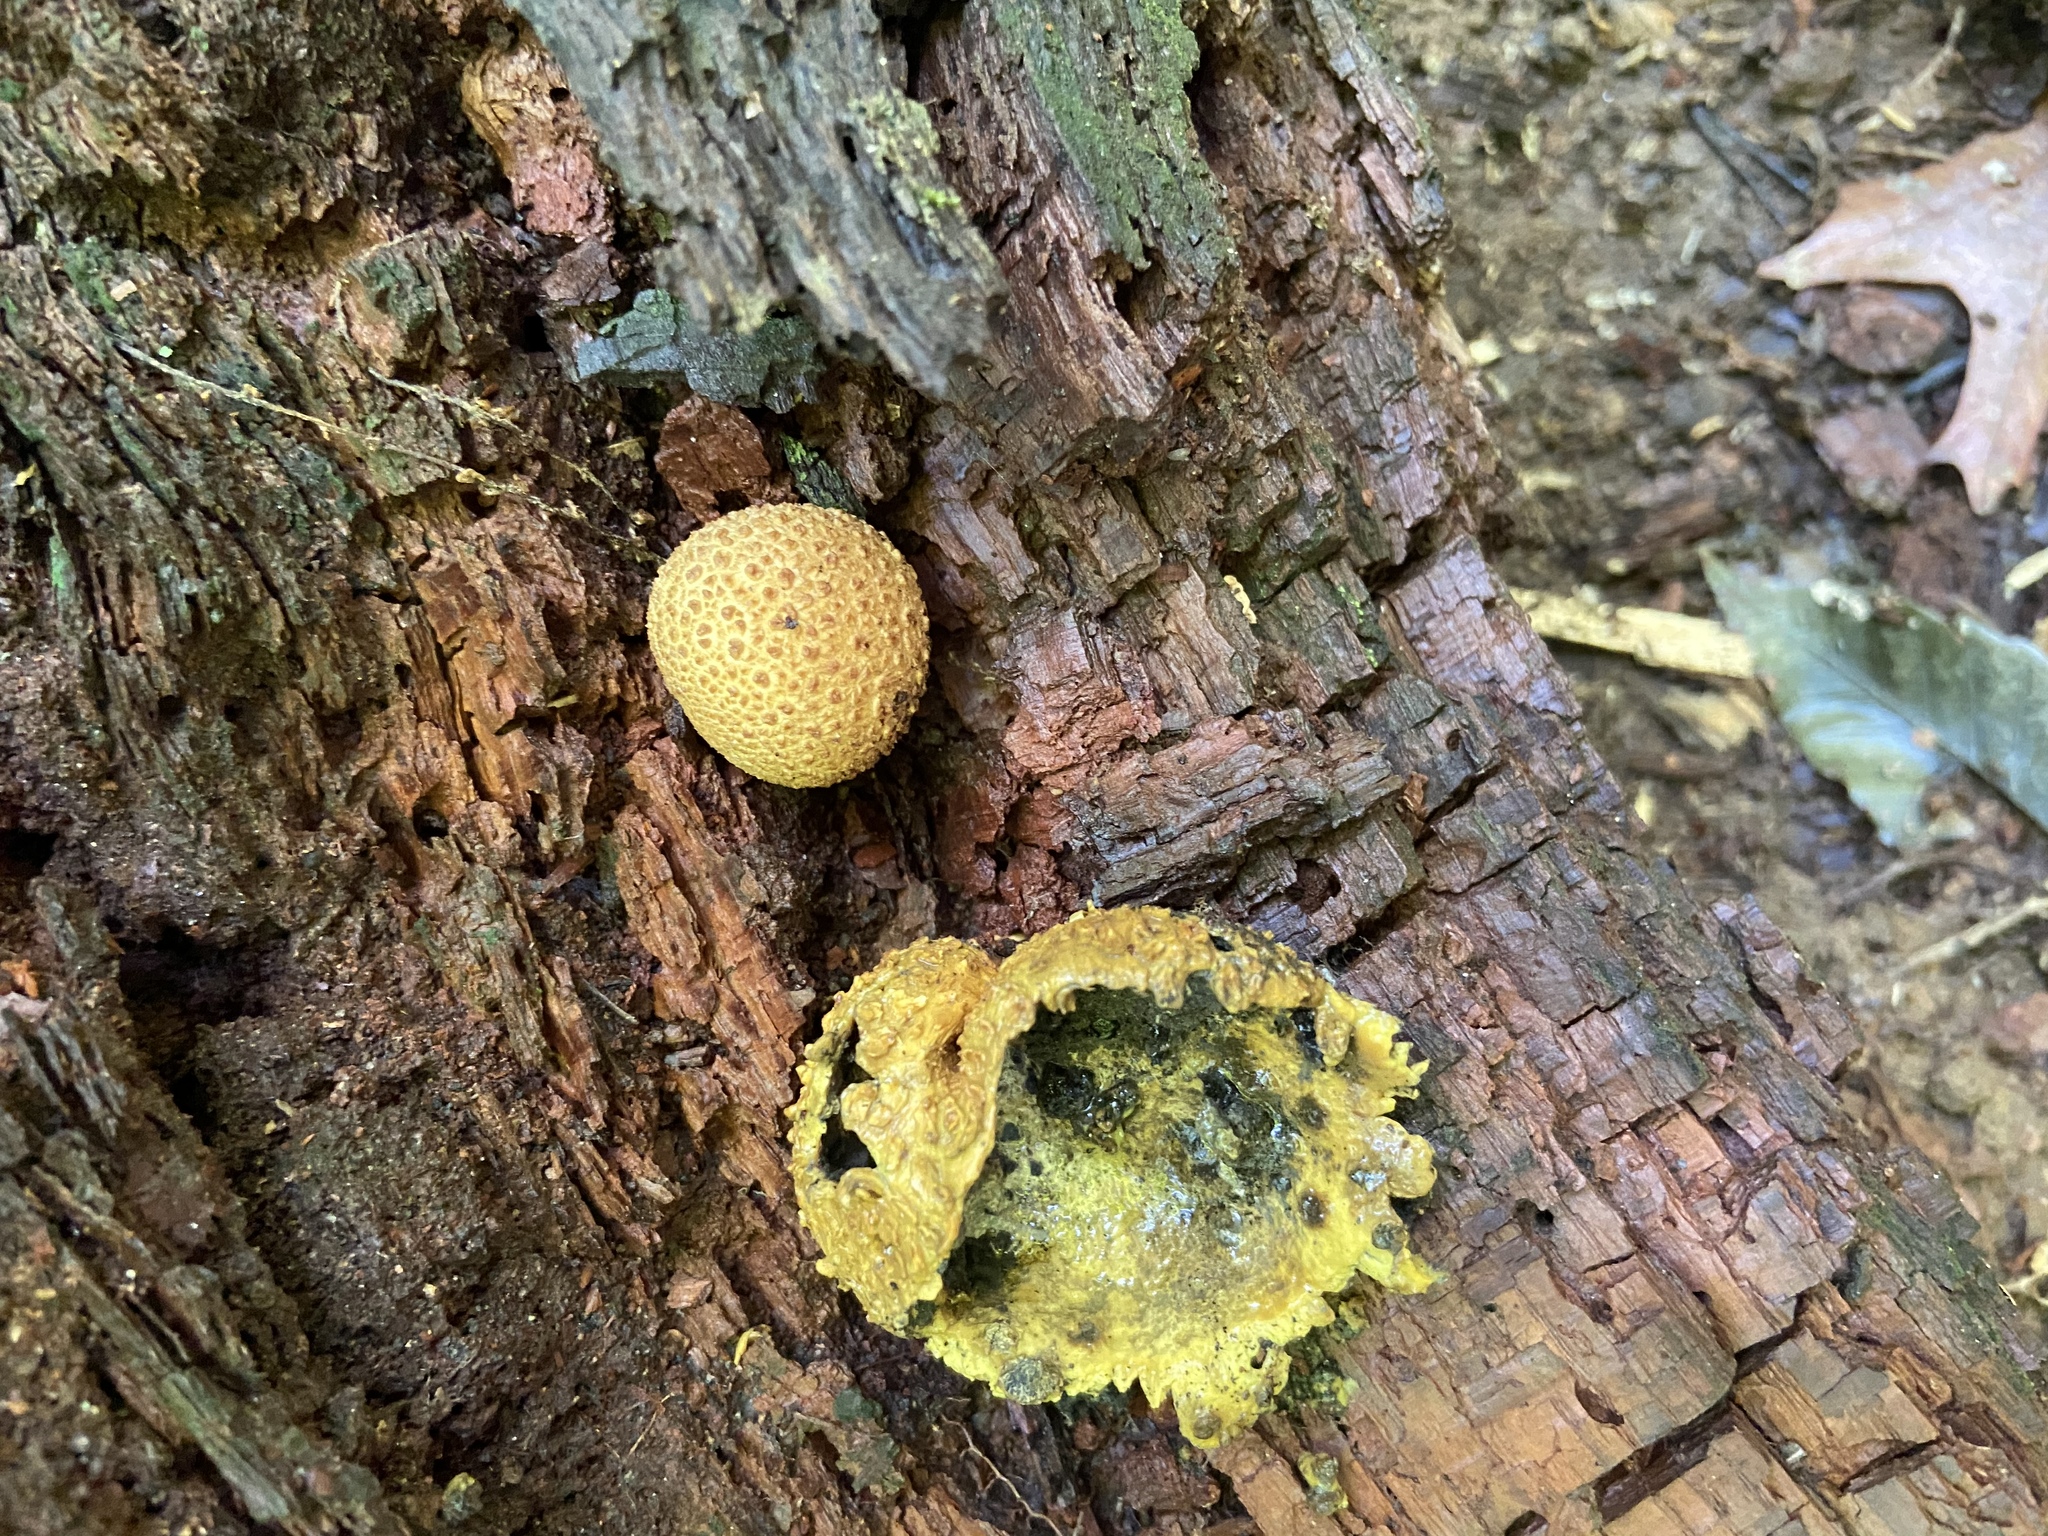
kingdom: Fungi
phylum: Basidiomycota
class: Agaricomycetes
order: Boletales
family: Sclerodermataceae
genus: Scleroderma
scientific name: Scleroderma citrinum
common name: Common earthball
